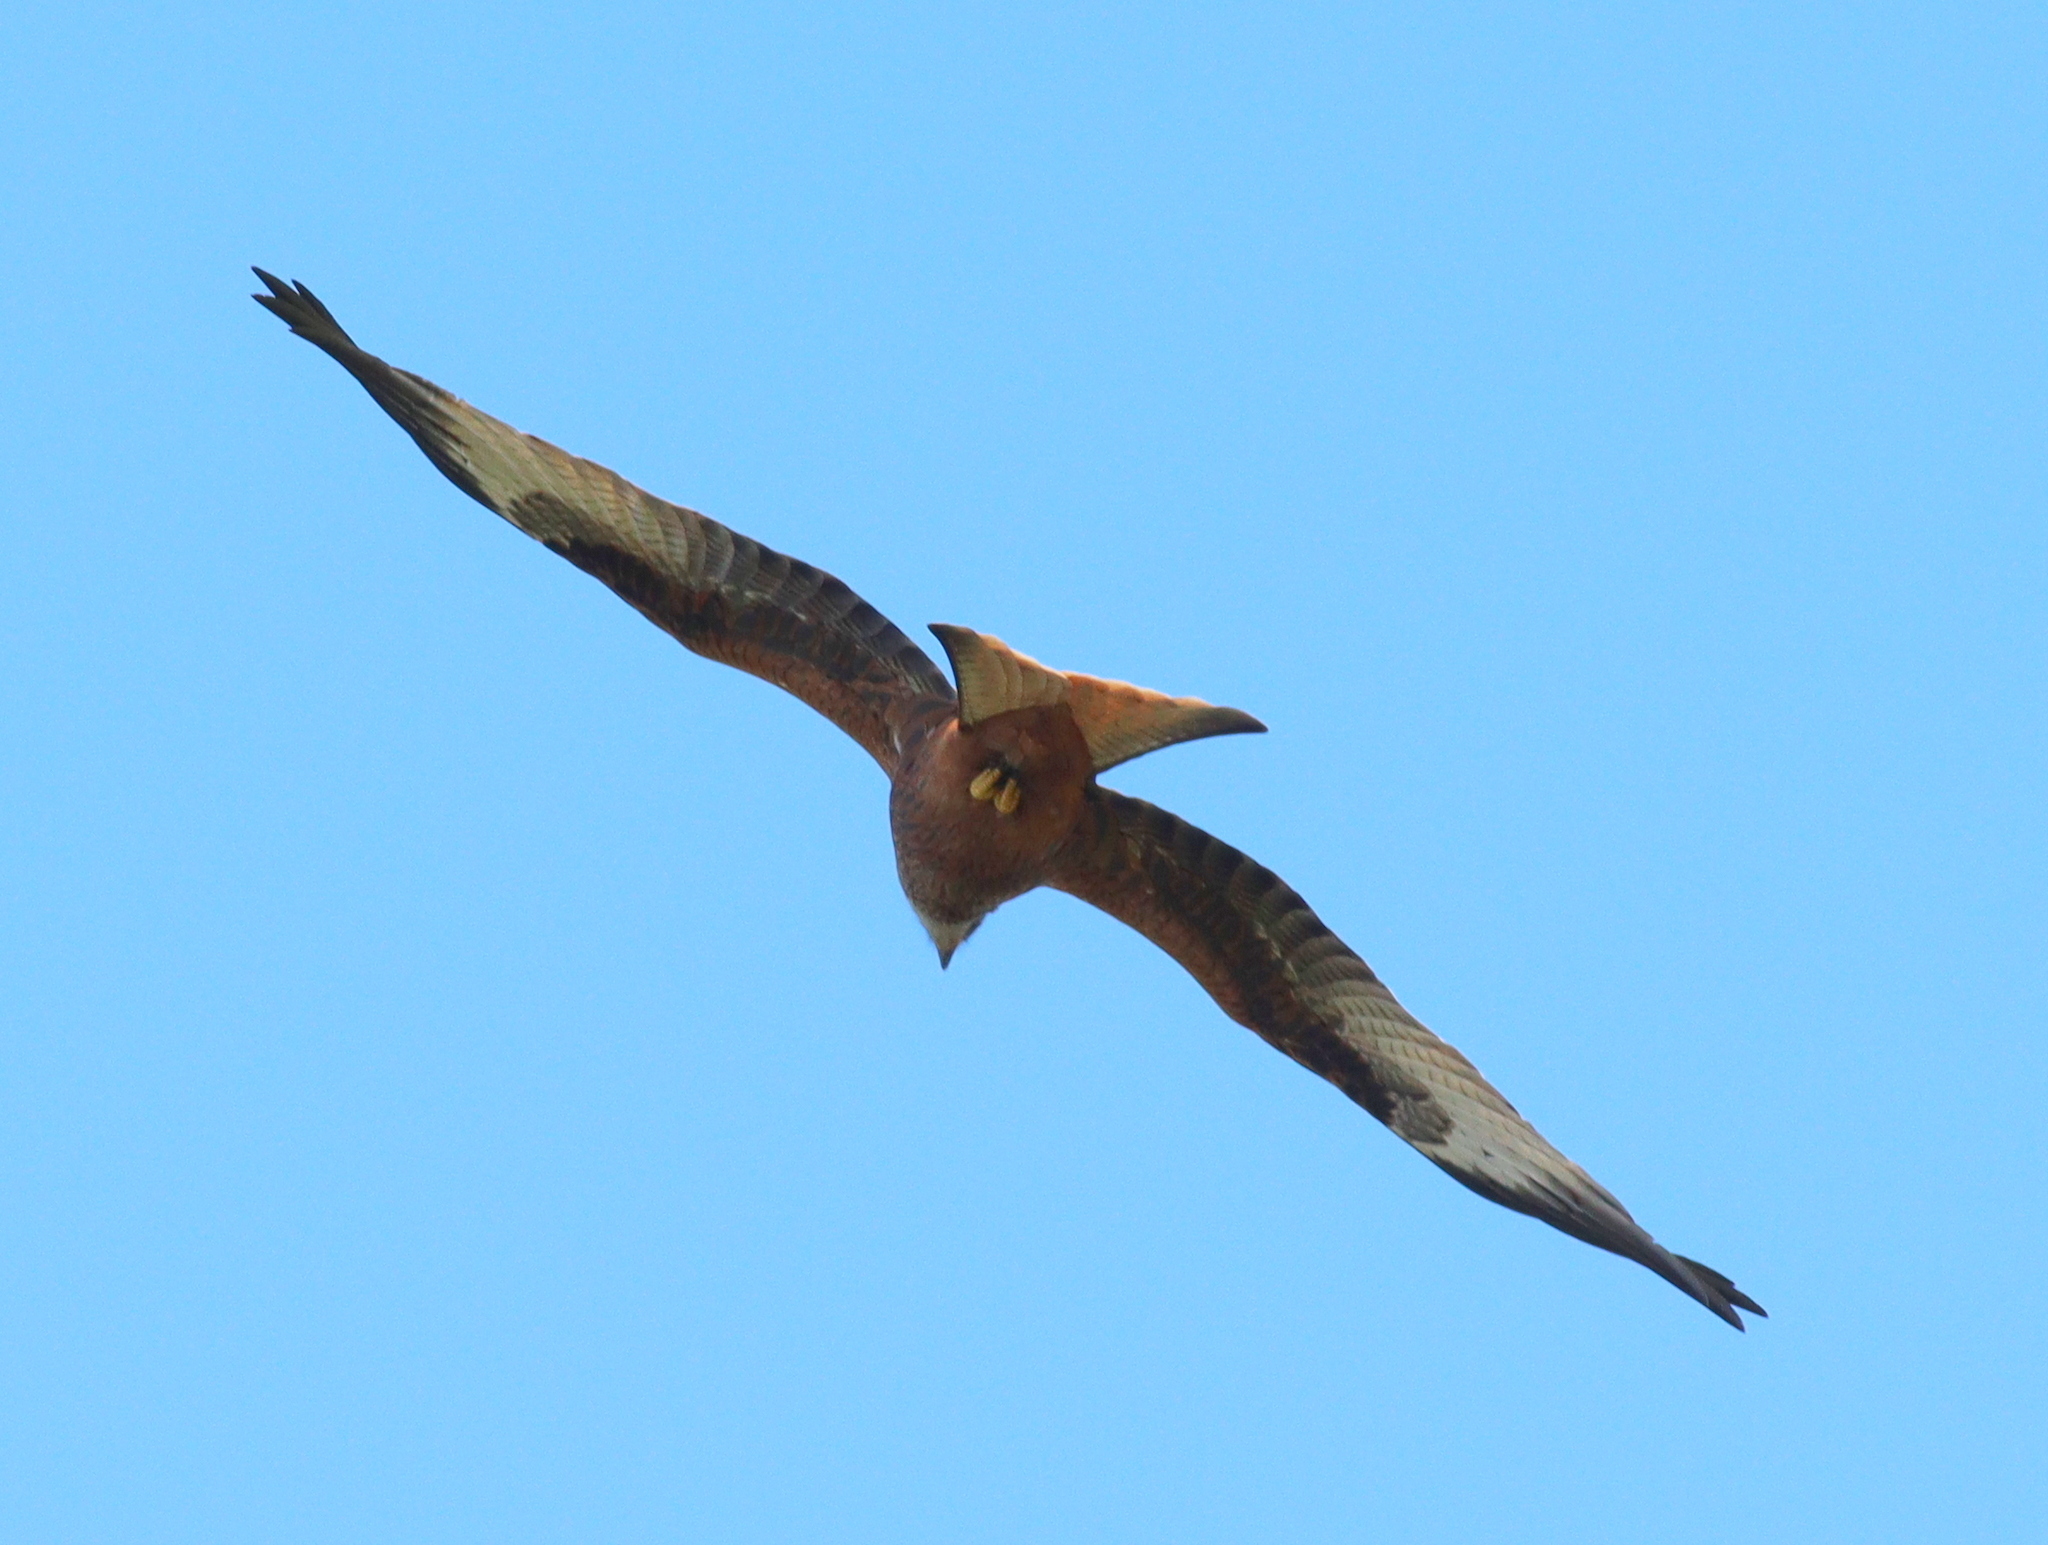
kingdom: Animalia
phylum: Chordata
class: Aves
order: Accipitriformes
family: Accipitridae
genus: Milvus
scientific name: Milvus milvus
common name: Red kite
